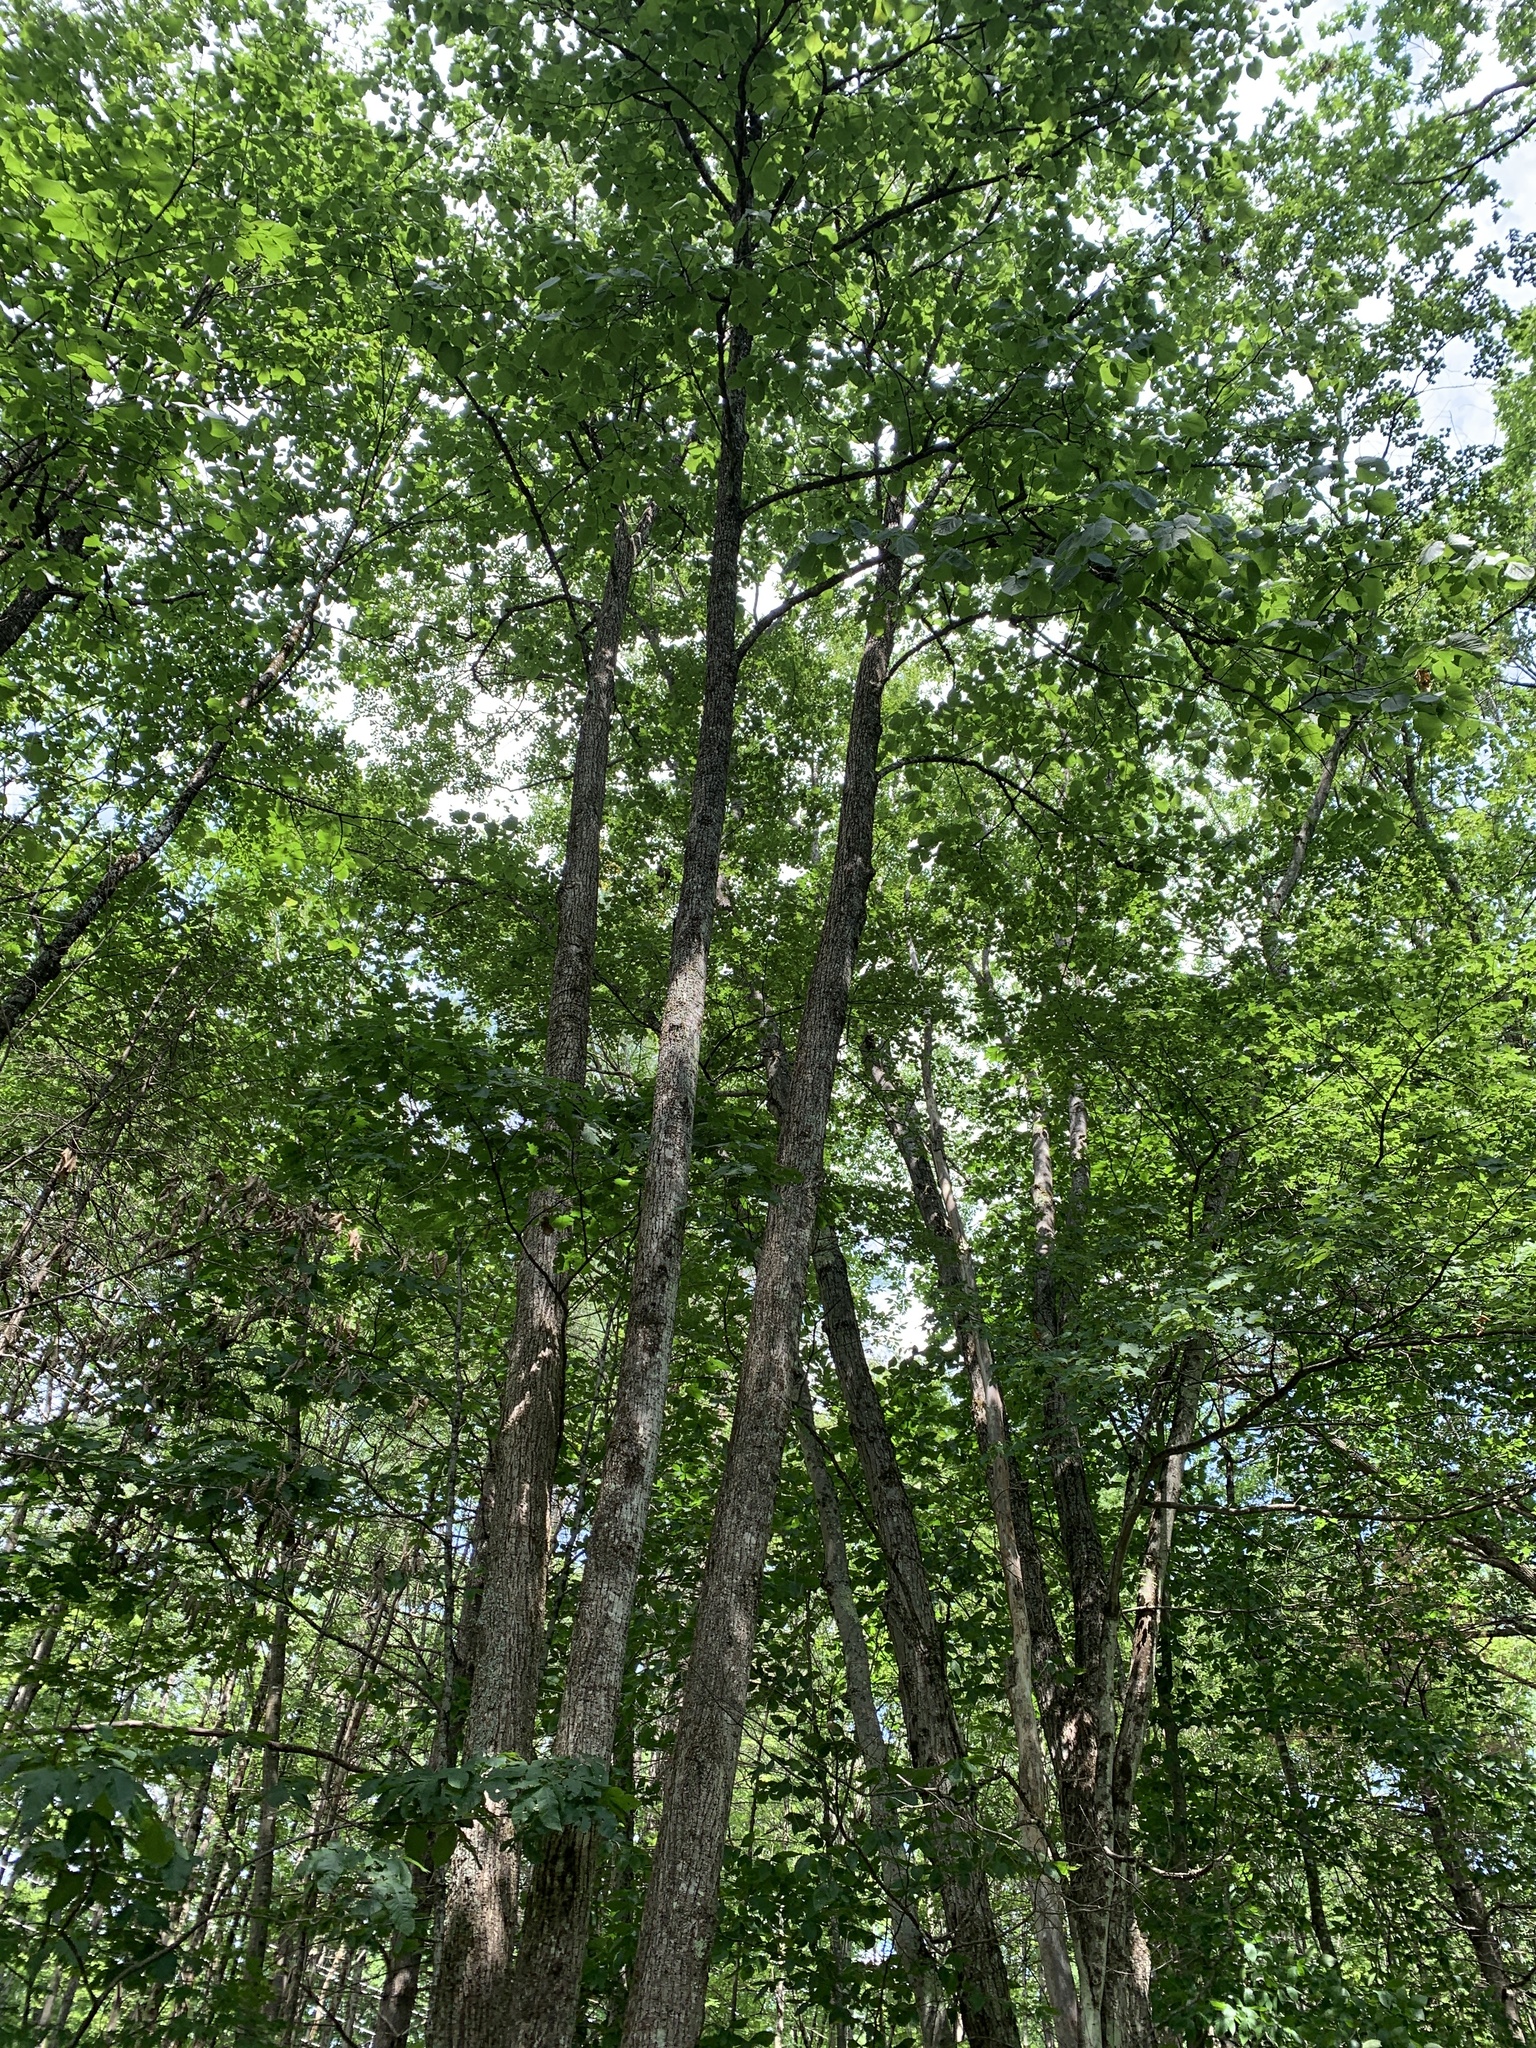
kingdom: Plantae
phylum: Tracheophyta
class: Magnoliopsida
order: Malvales
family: Malvaceae
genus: Tilia
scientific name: Tilia americana
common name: Basswood
